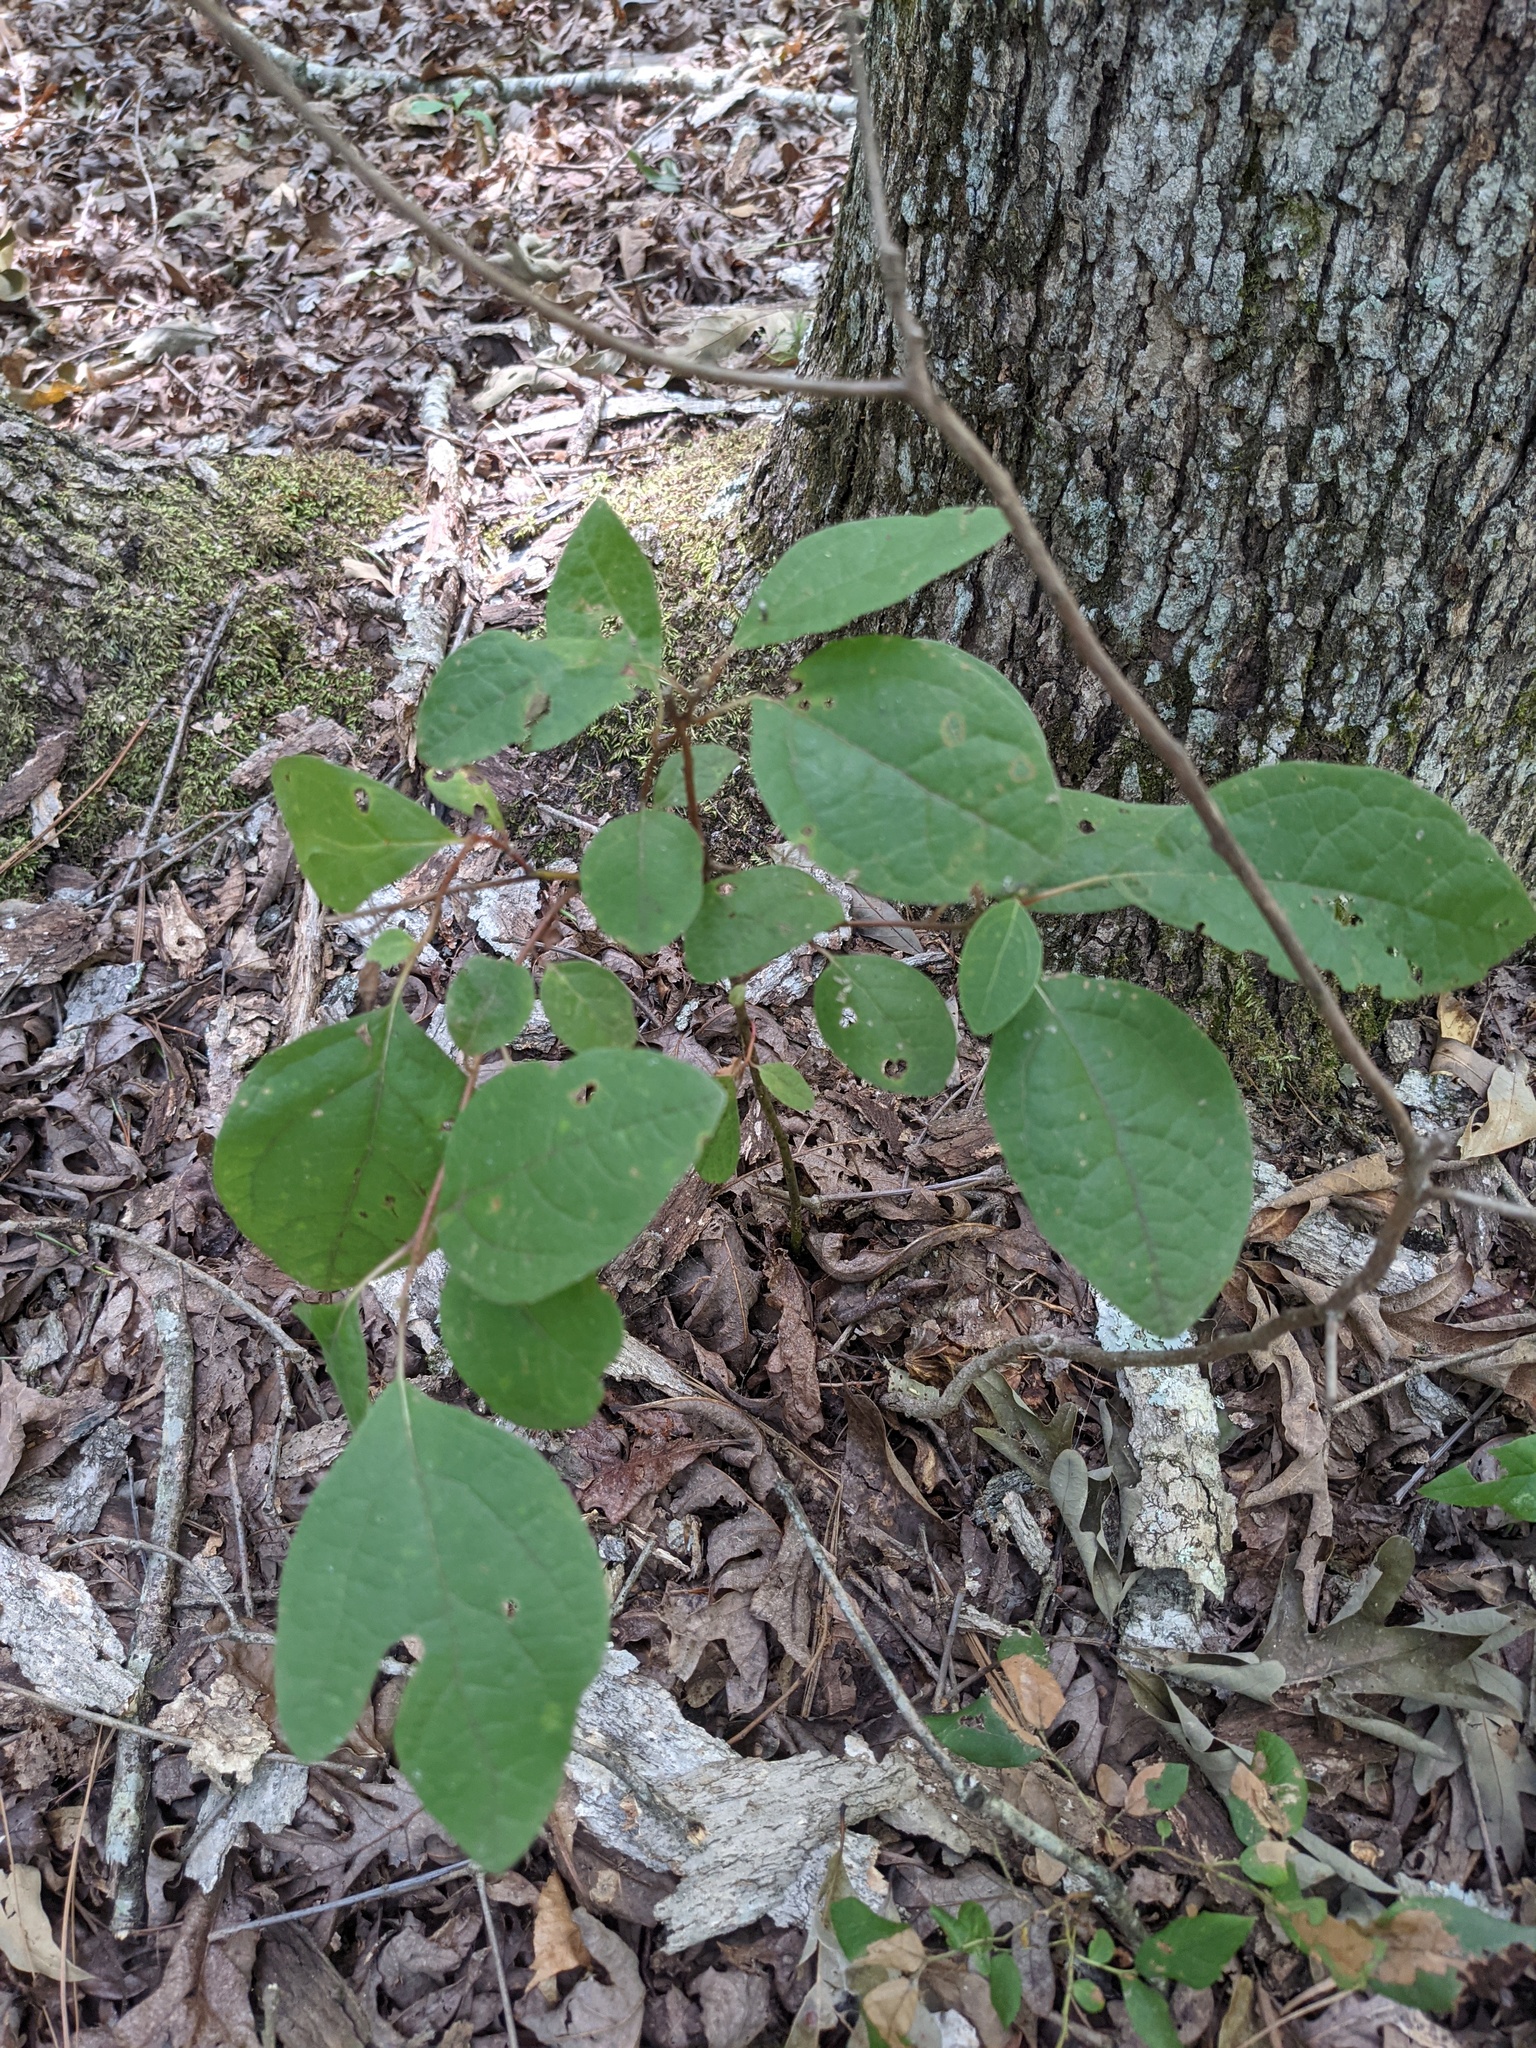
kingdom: Plantae
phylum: Tracheophyta
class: Magnoliopsida
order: Laurales
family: Lauraceae
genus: Sassafras
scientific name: Sassafras albidum
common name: Sassafras
